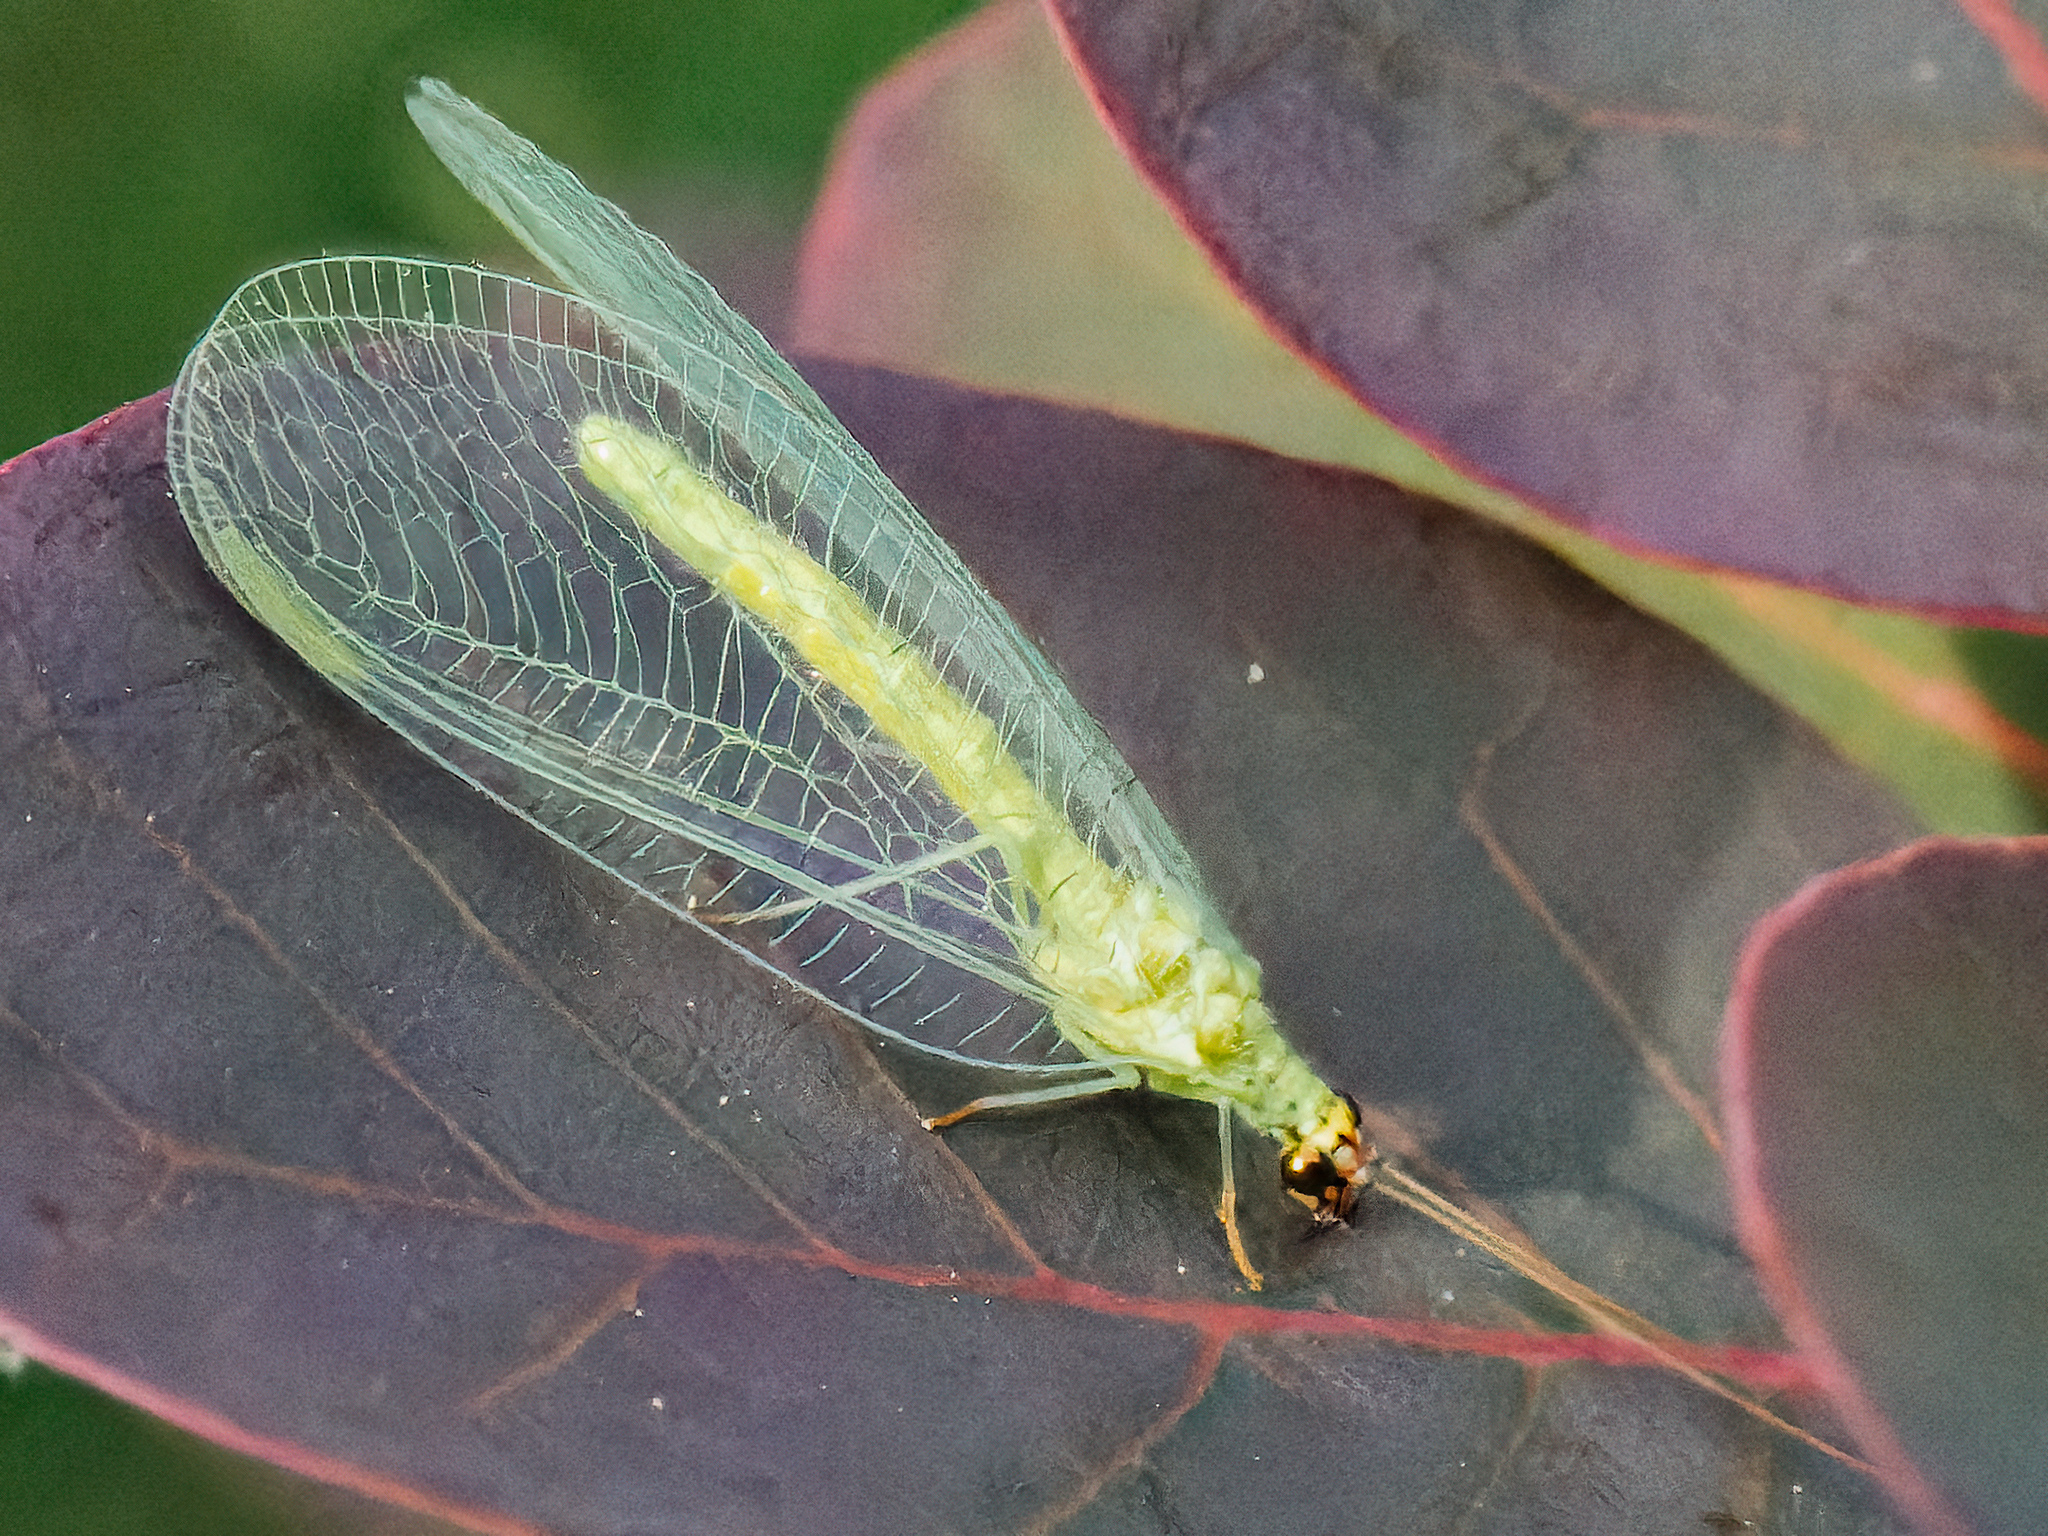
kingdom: Animalia
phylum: Arthropoda
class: Insecta
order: Neuroptera
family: Chrysopidae
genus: Chrysopa
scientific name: Chrysopa oculata
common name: Golden-eyed lacewing
